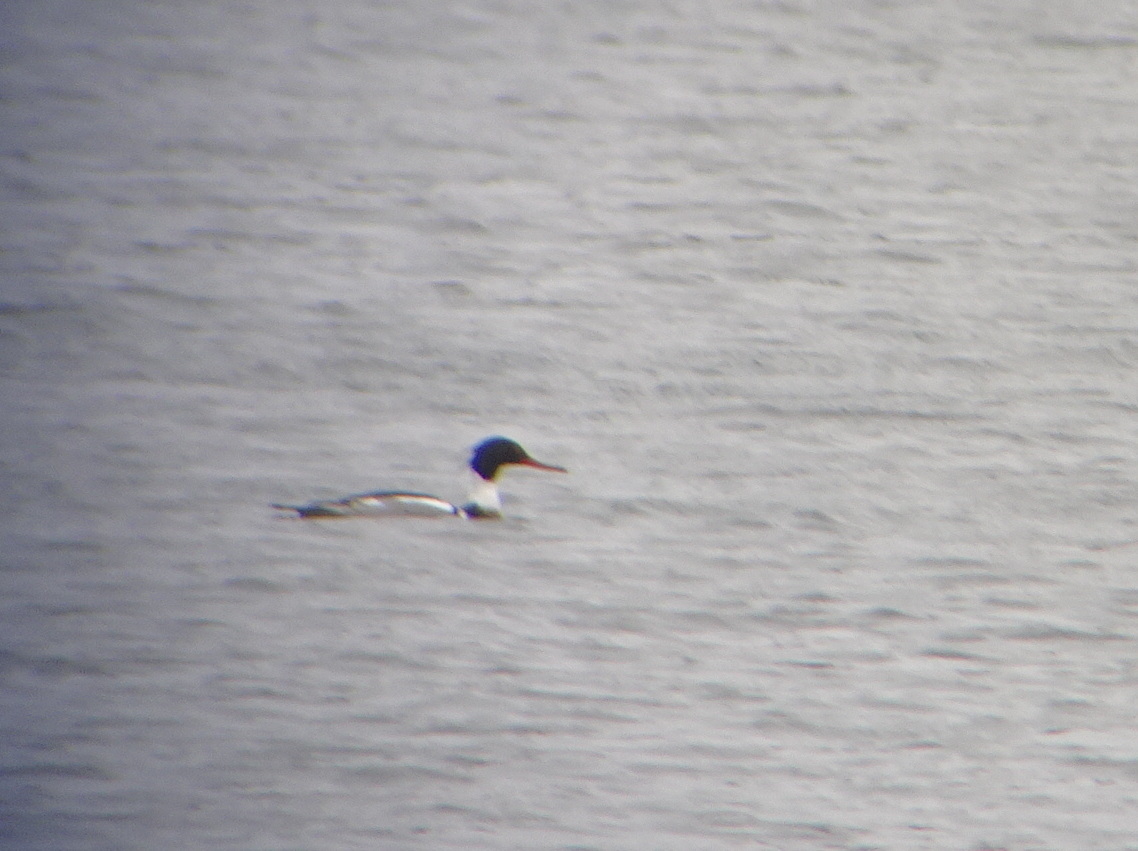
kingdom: Animalia
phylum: Chordata
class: Aves
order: Anseriformes
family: Anatidae
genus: Mergus
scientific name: Mergus serrator
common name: Red-breasted merganser
